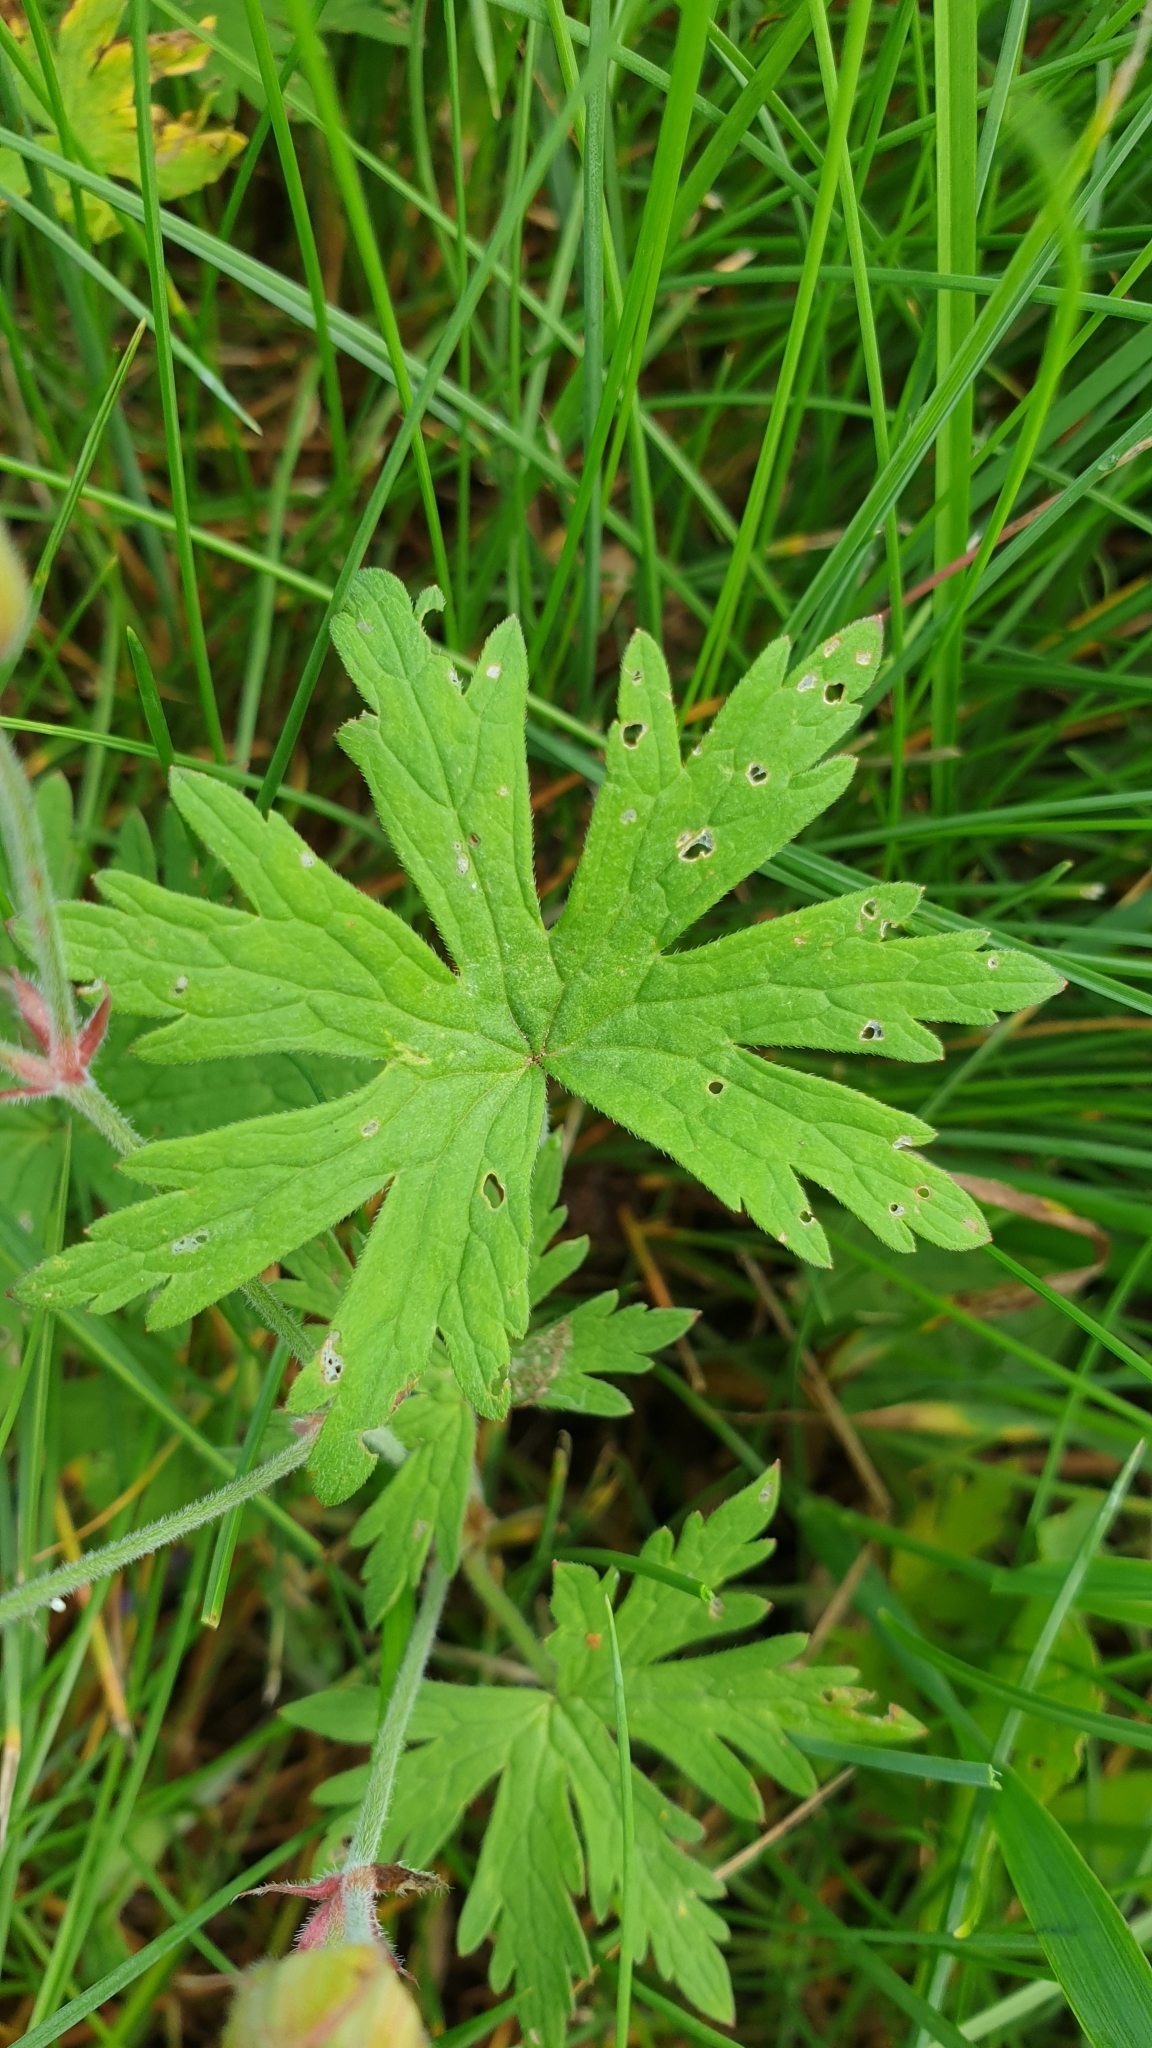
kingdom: Plantae
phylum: Tracheophyta
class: Magnoliopsida
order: Geraniales
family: Geraniaceae
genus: Geranium
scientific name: Geranium pratense
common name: Meadow crane's-bill
